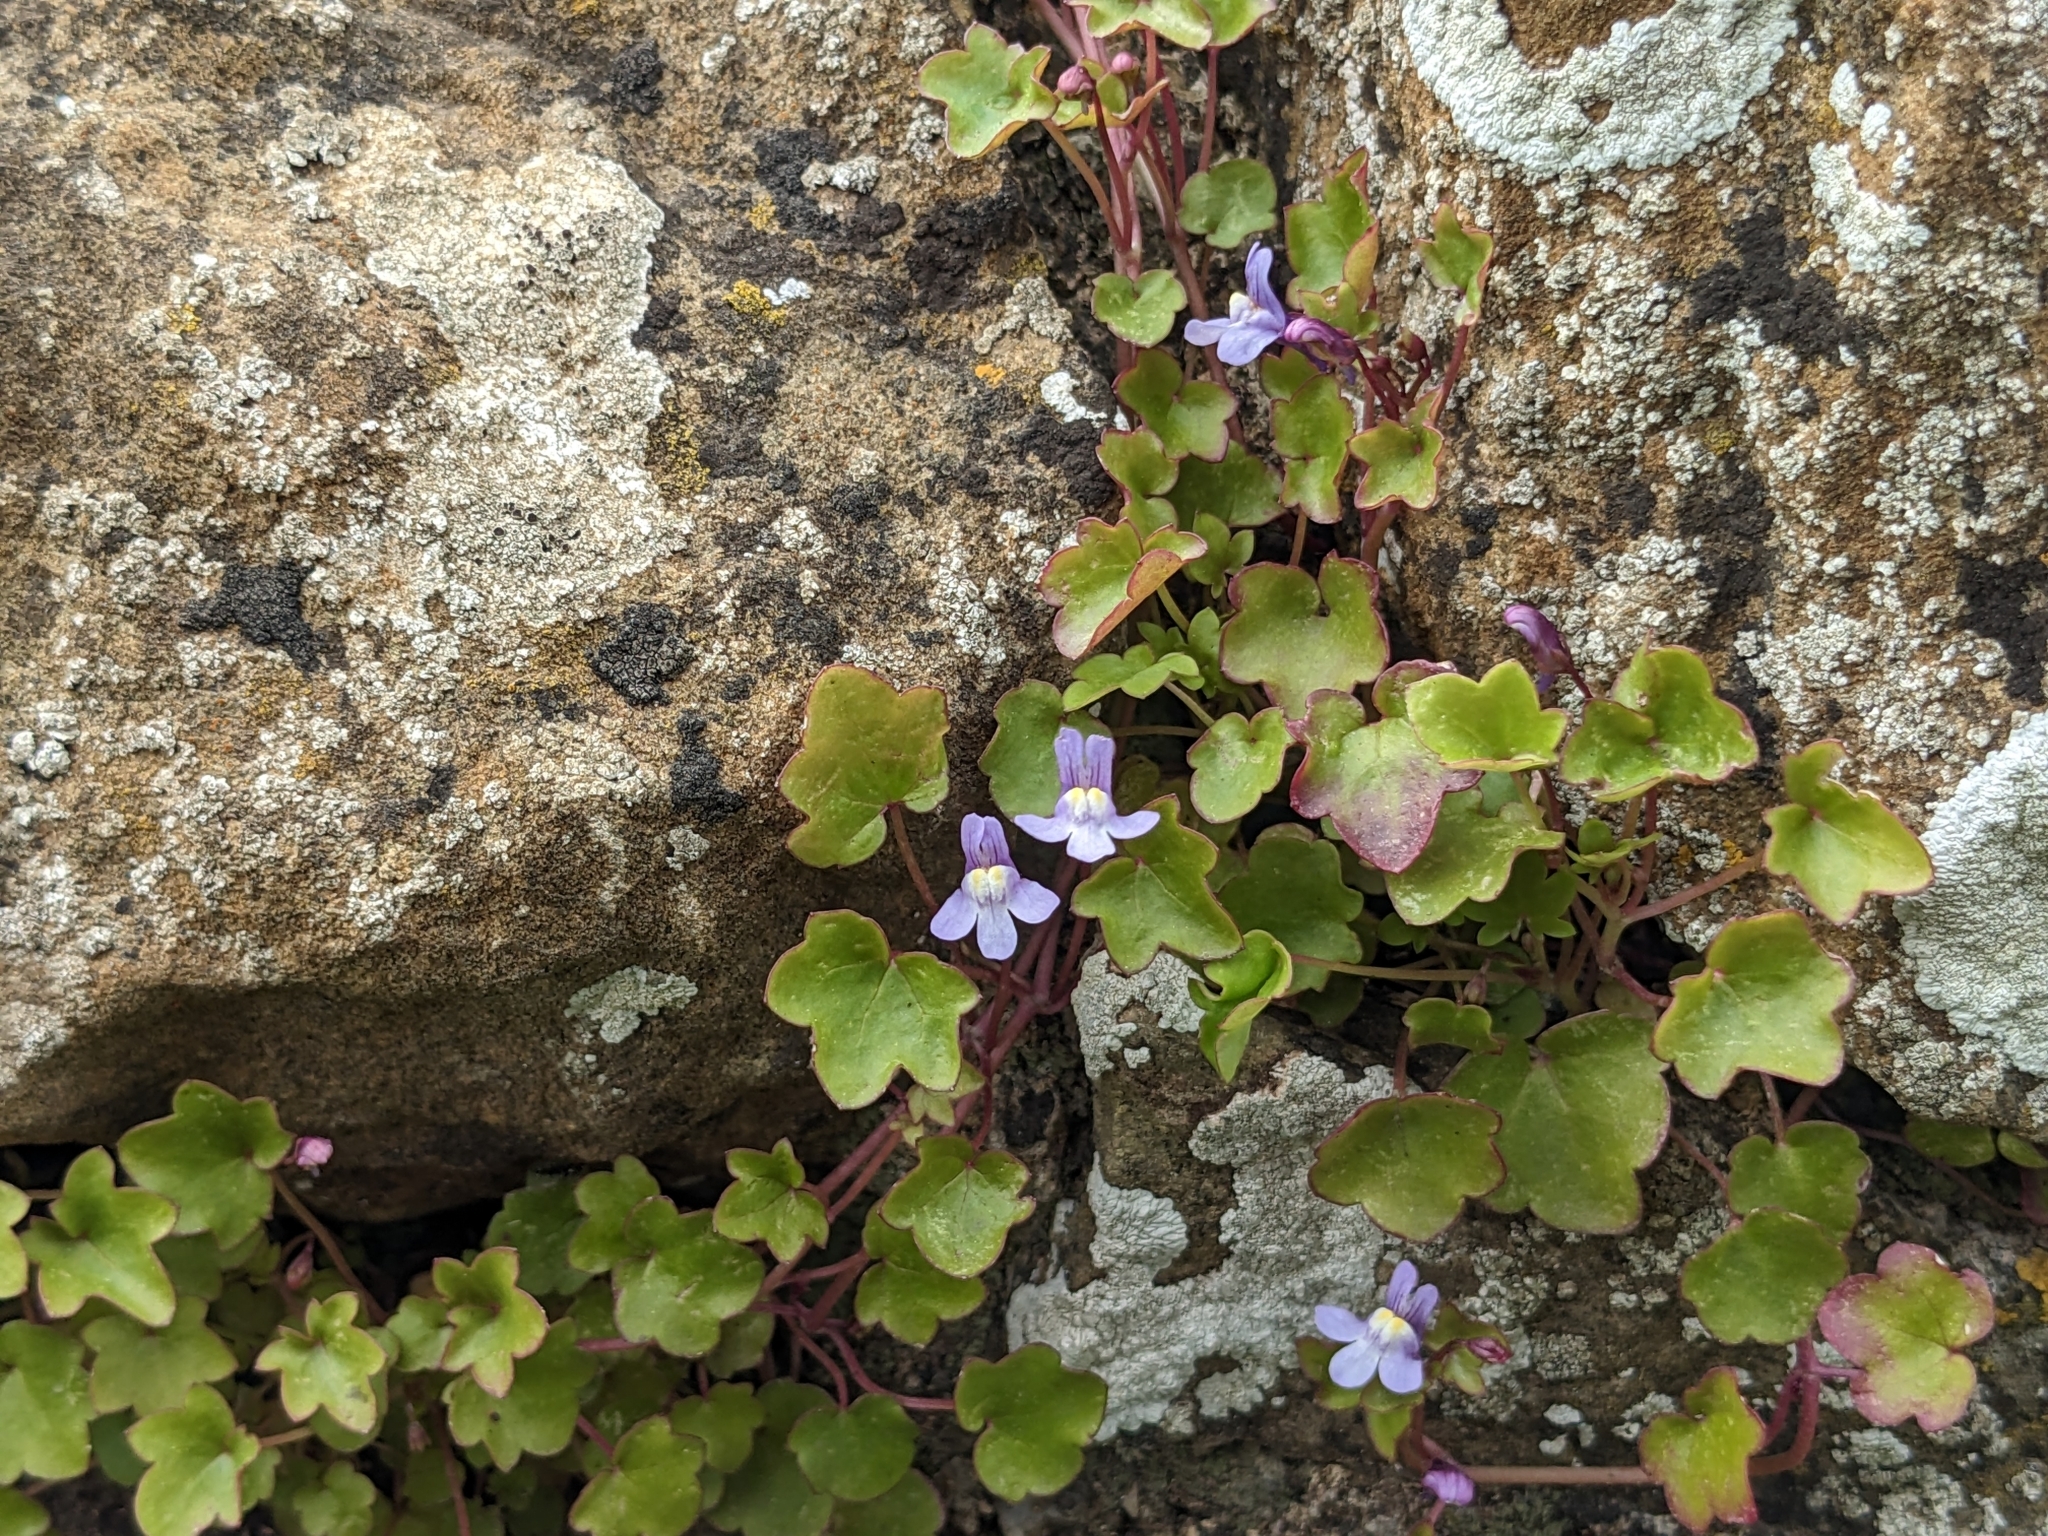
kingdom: Plantae
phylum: Tracheophyta
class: Magnoliopsida
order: Lamiales
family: Plantaginaceae
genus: Cymbalaria
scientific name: Cymbalaria muralis
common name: Ivy-leaved toadflax
